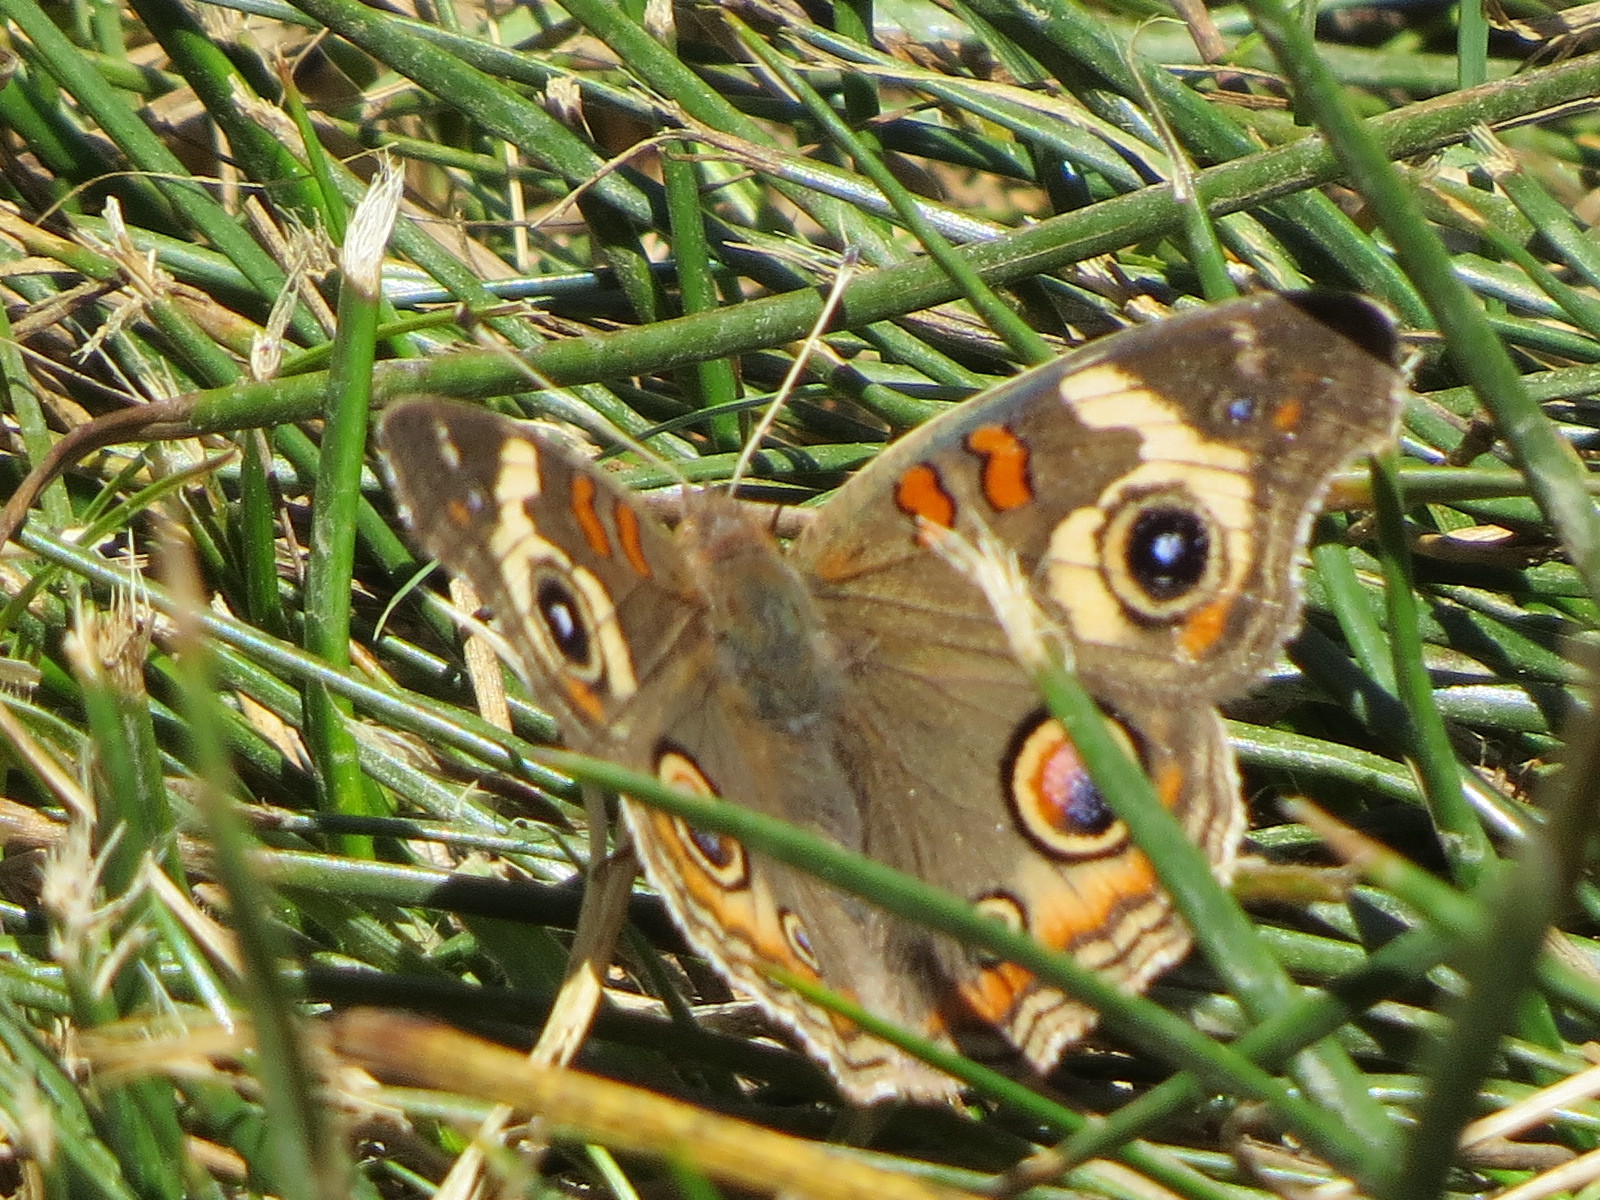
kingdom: Animalia
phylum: Arthropoda
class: Insecta
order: Lepidoptera
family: Nymphalidae
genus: Junonia
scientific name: Junonia grisea
